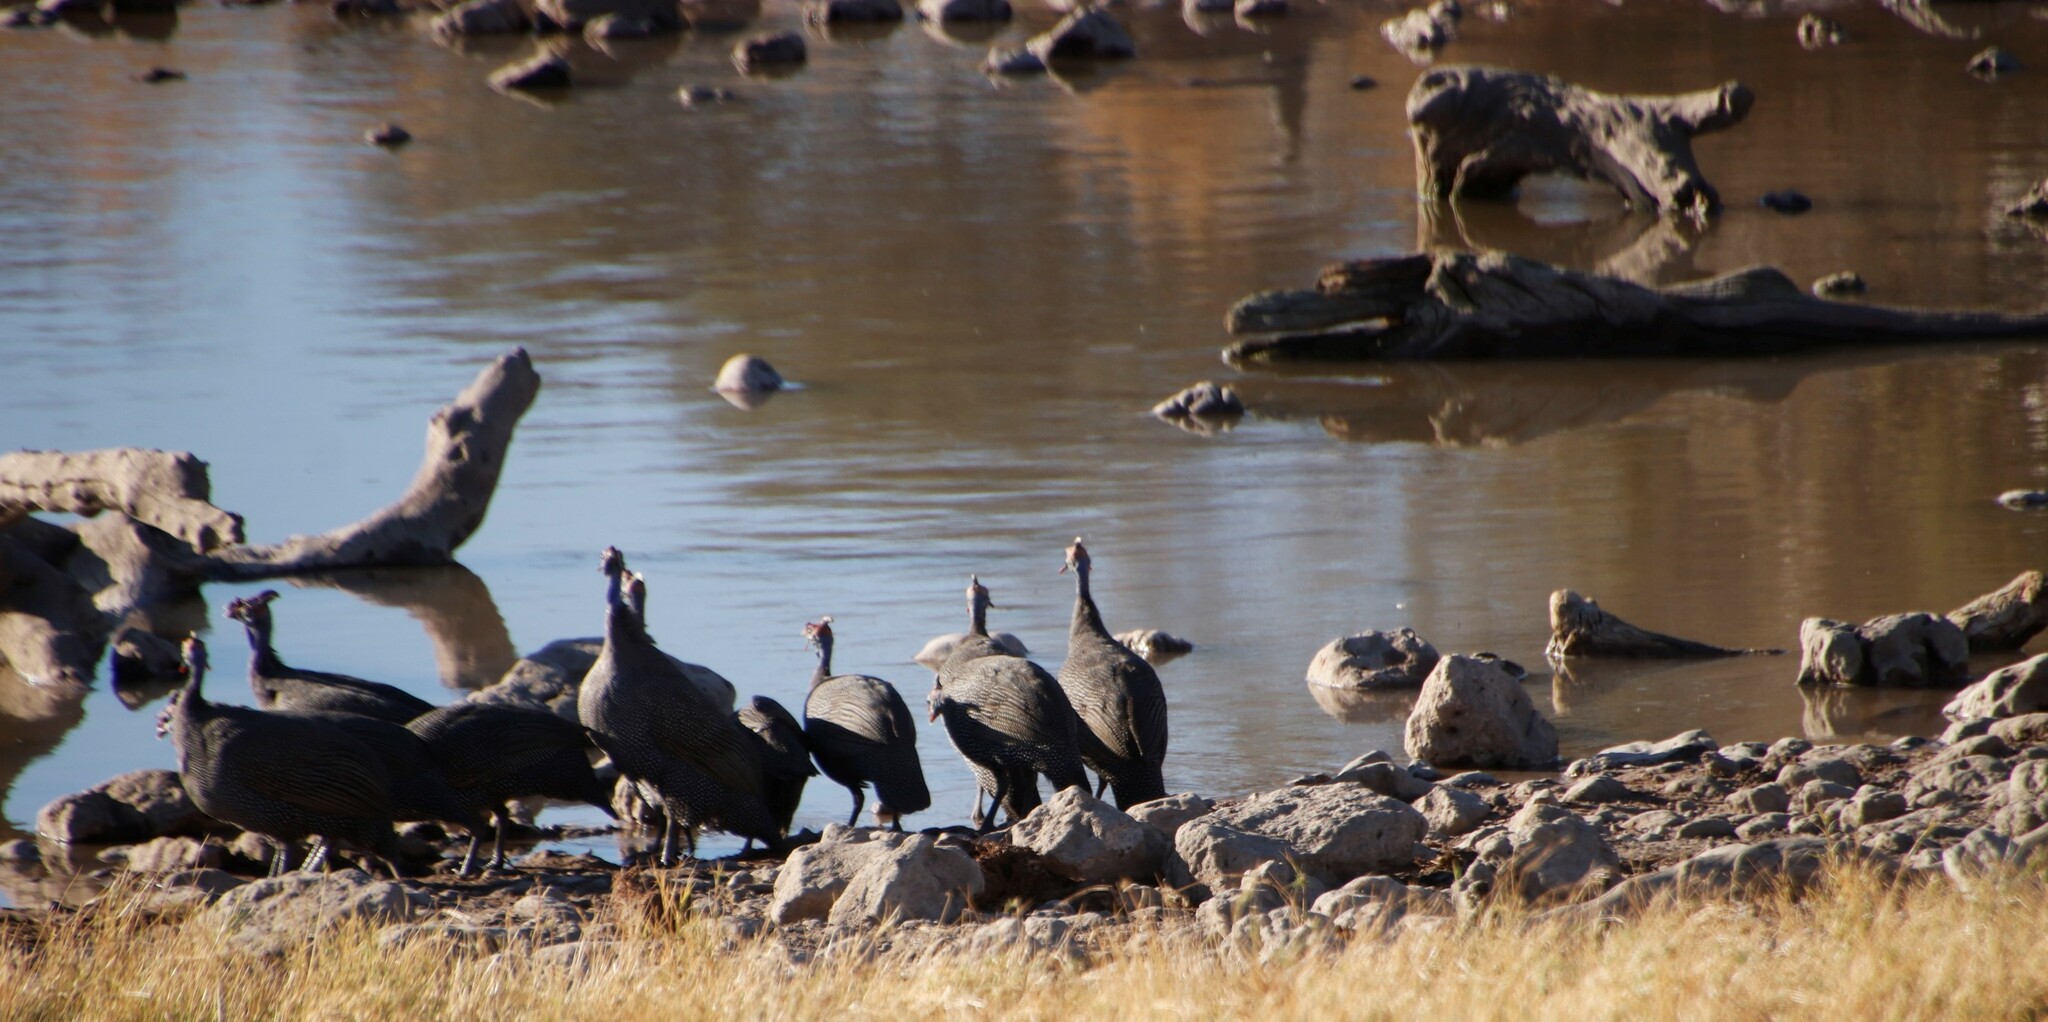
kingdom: Animalia
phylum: Chordata
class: Aves
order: Galliformes
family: Numididae
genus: Numida
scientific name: Numida meleagris
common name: Helmeted guineafowl
